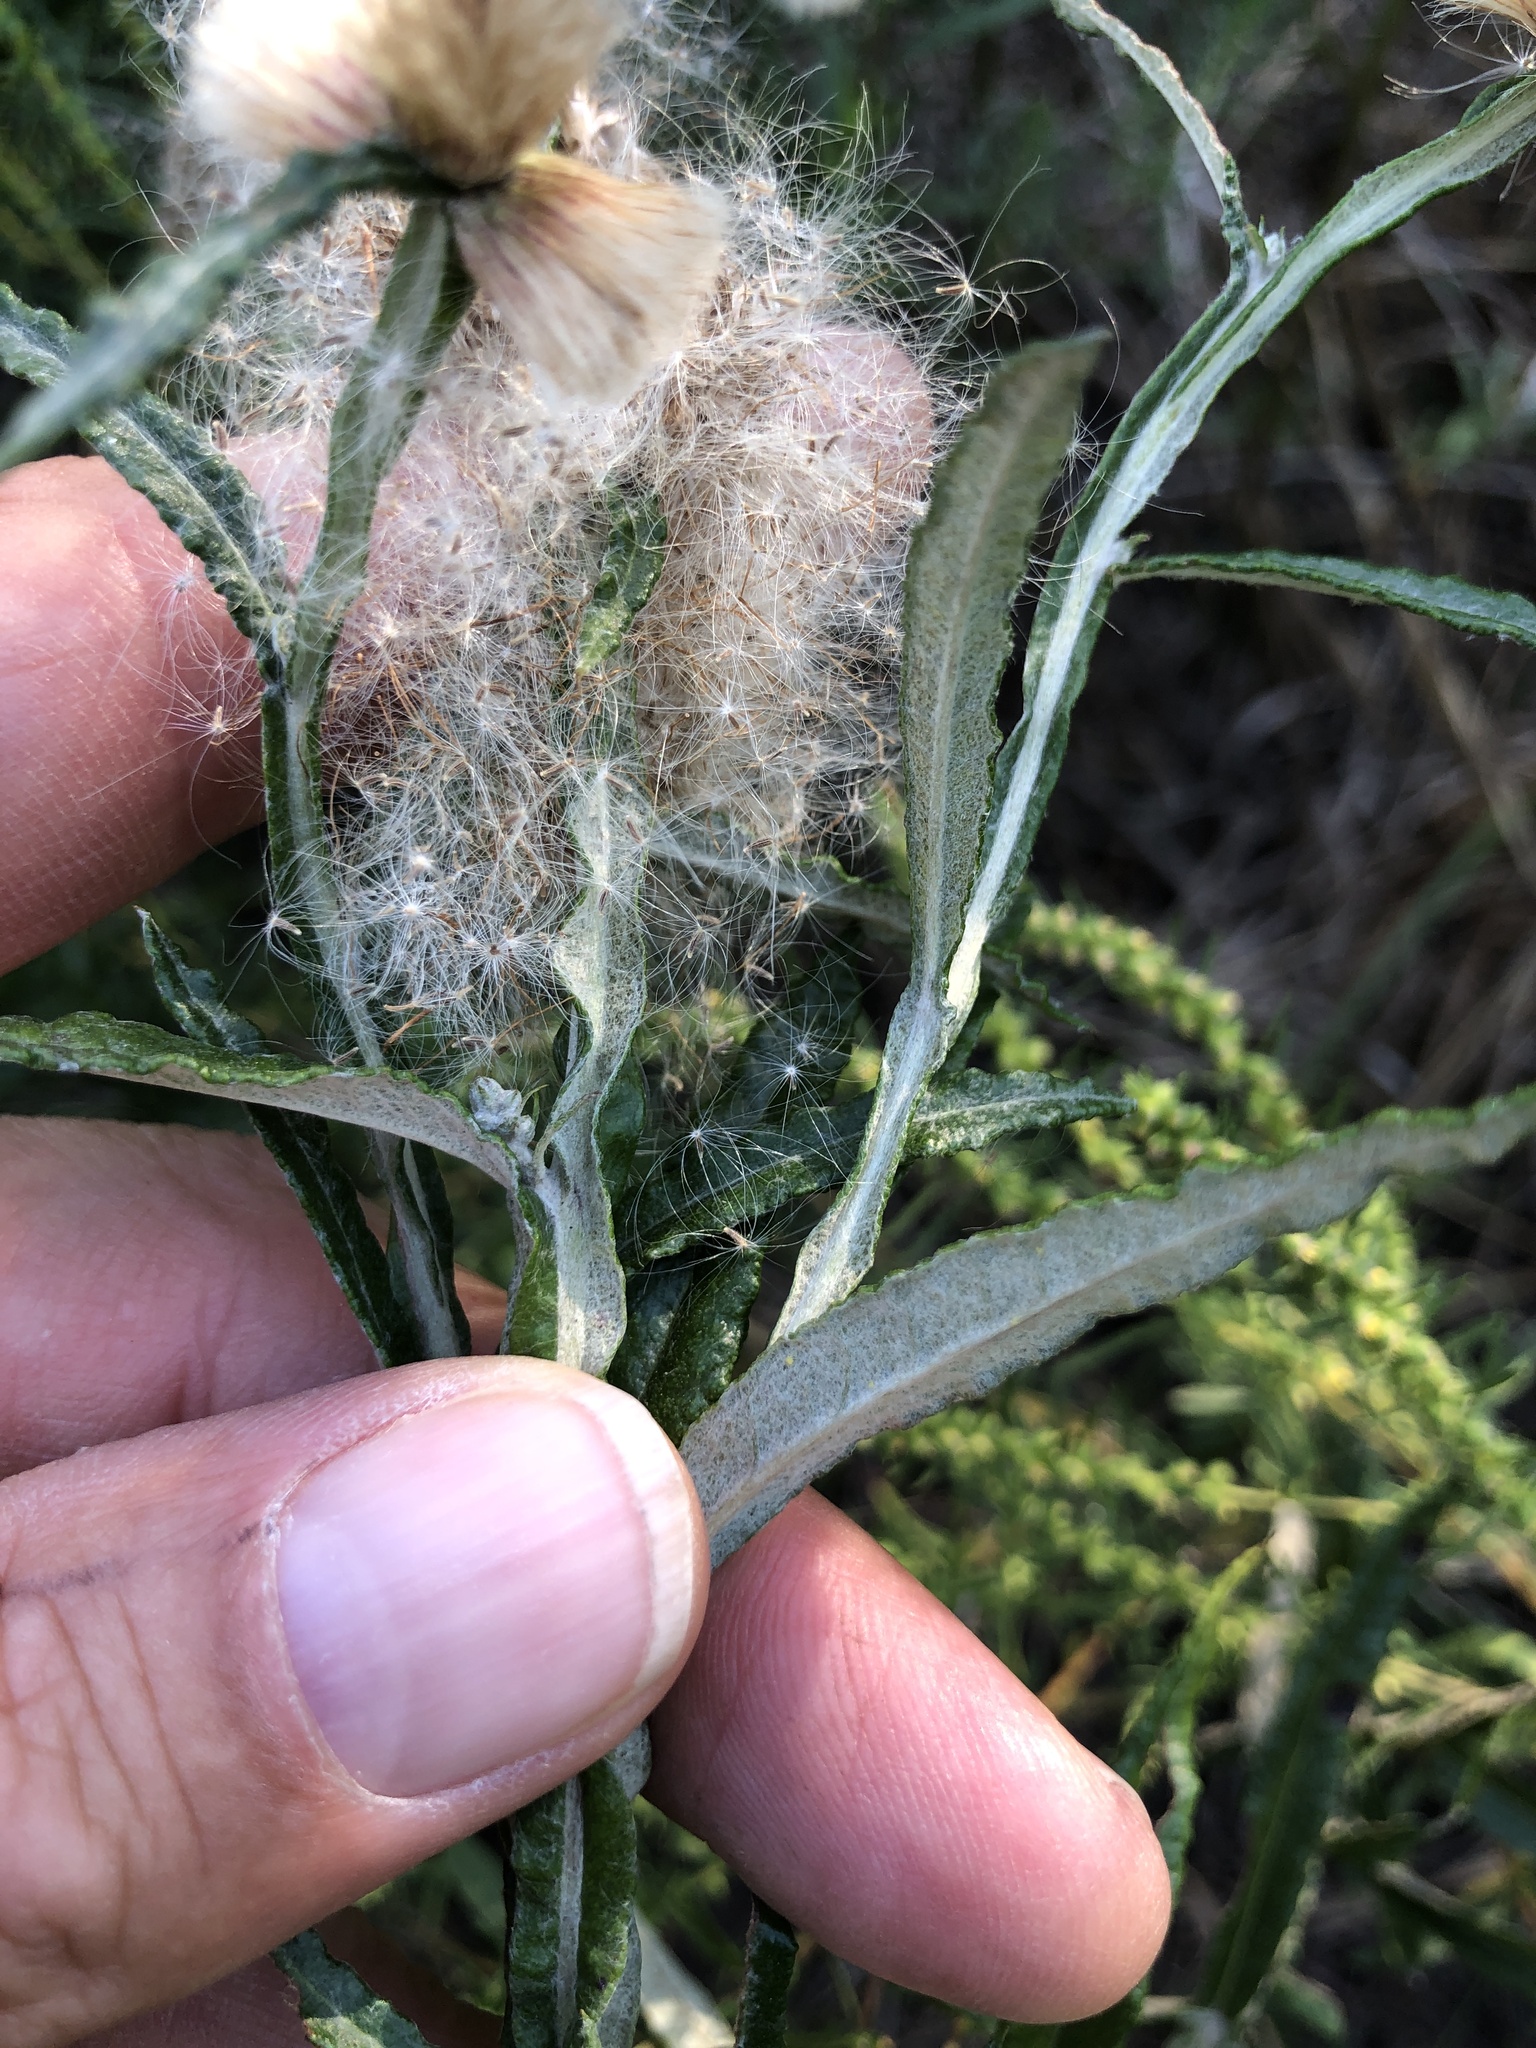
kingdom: Plantae
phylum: Tracheophyta
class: Magnoliopsida
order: Asterales
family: Asteraceae
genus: Pterocaulon
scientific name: Pterocaulon virgatum
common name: Wand blackroot
